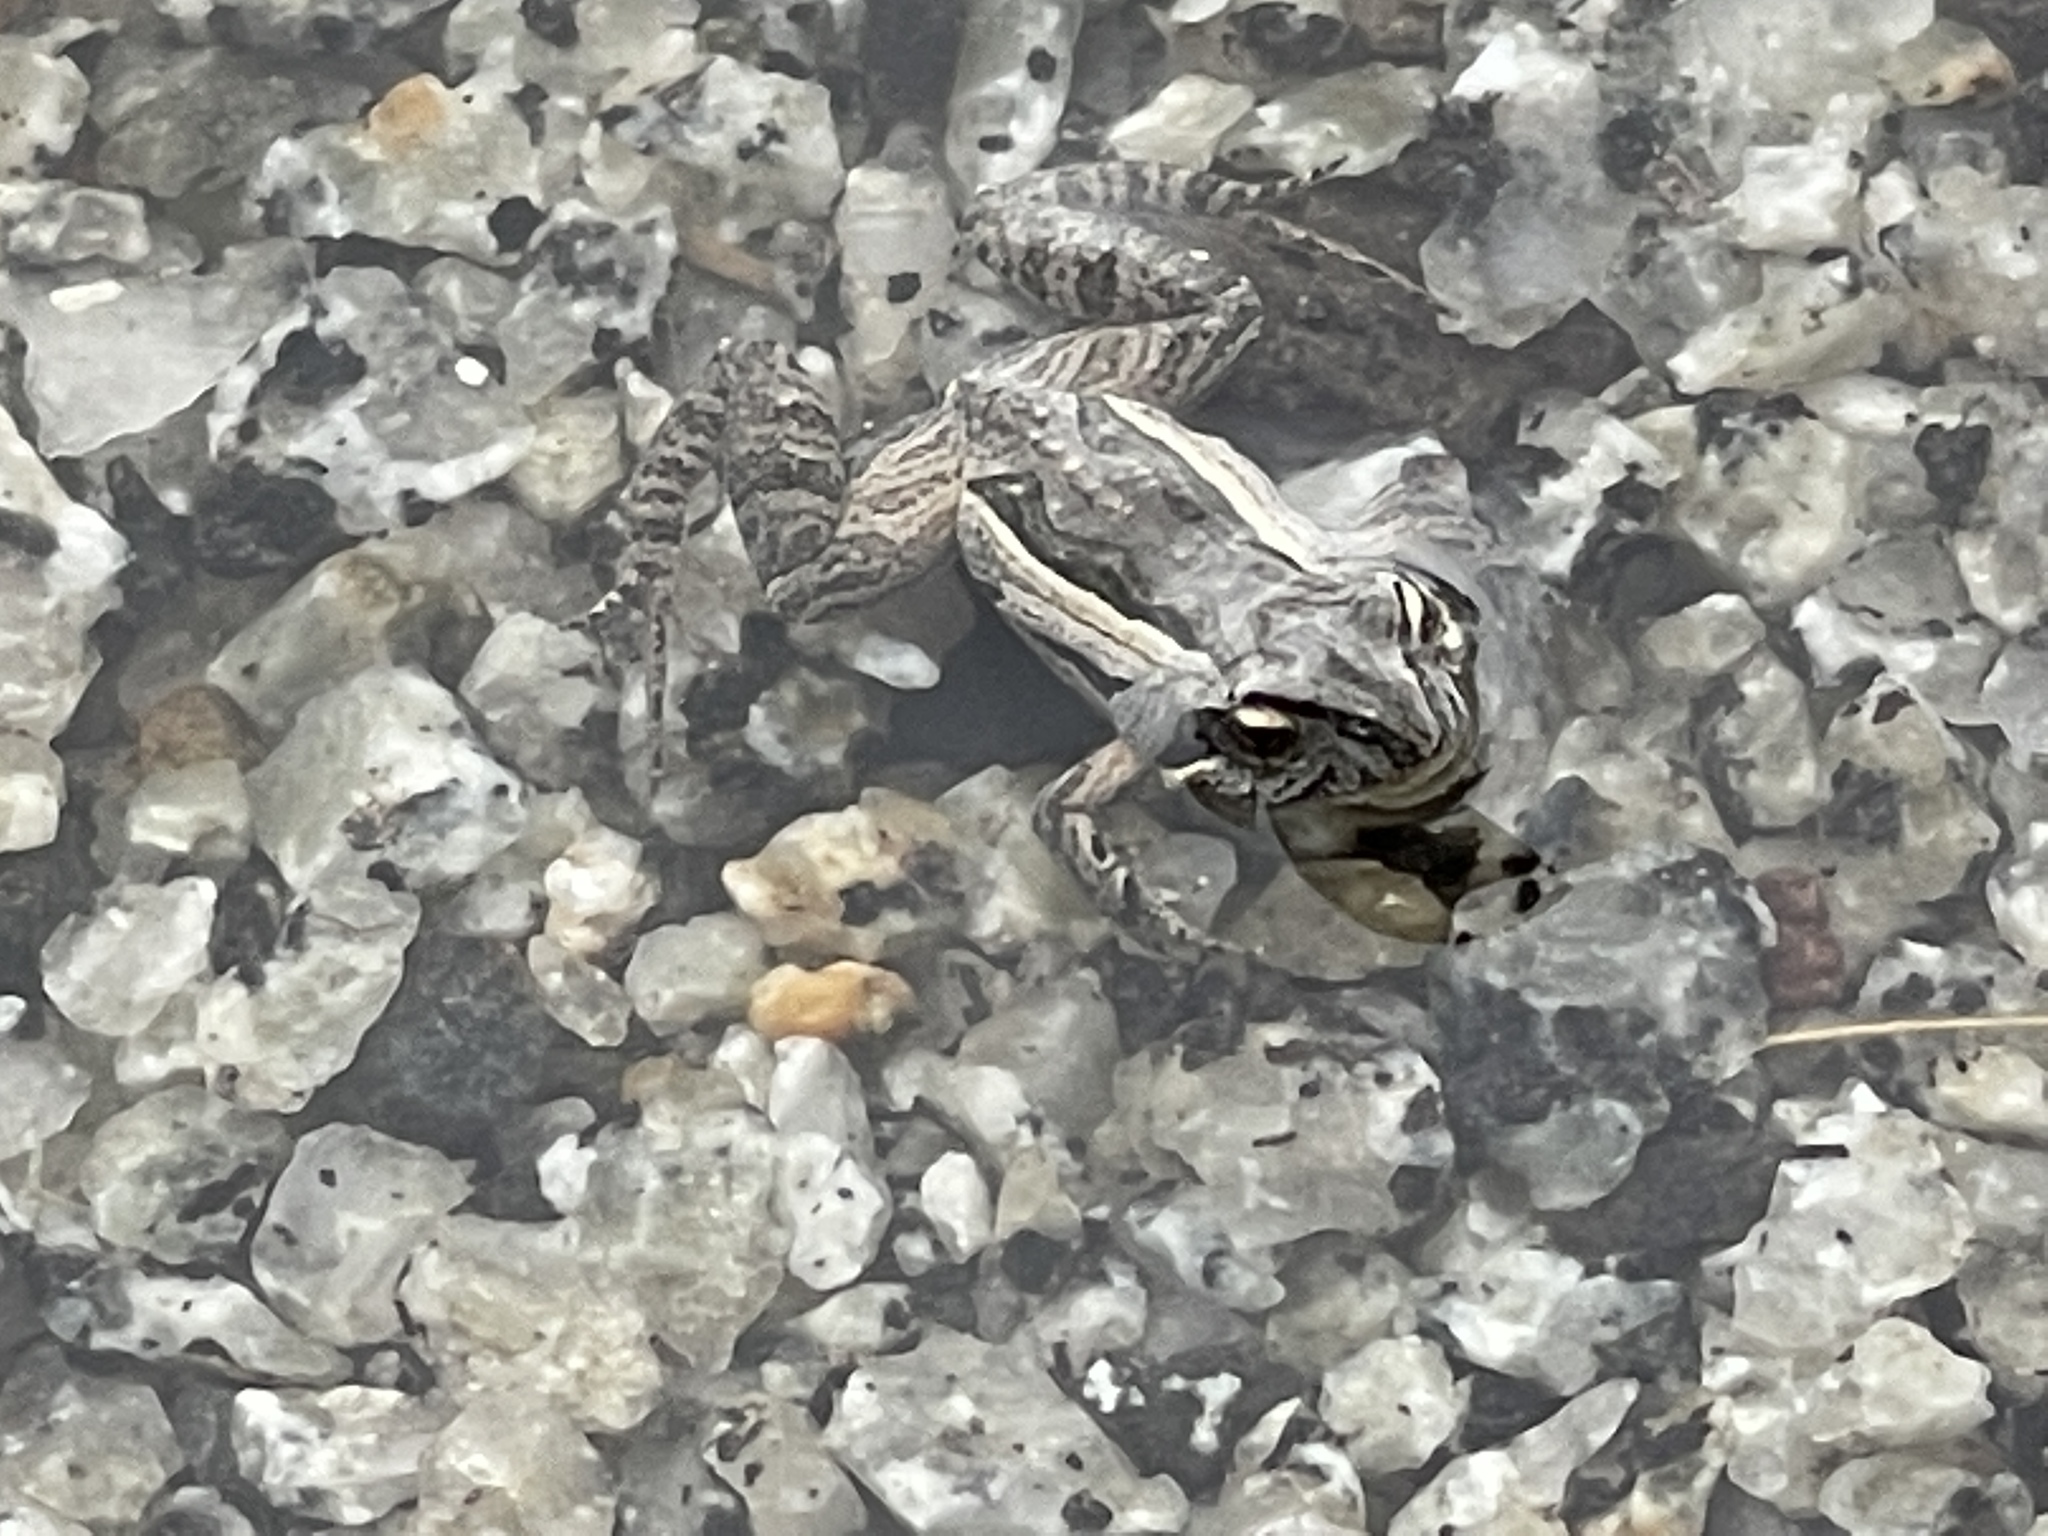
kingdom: Animalia
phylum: Chordata
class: Amphibia
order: Anura
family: Myobatrachidae
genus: Crinia
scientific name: Crinia signifera
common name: Brown froglet
